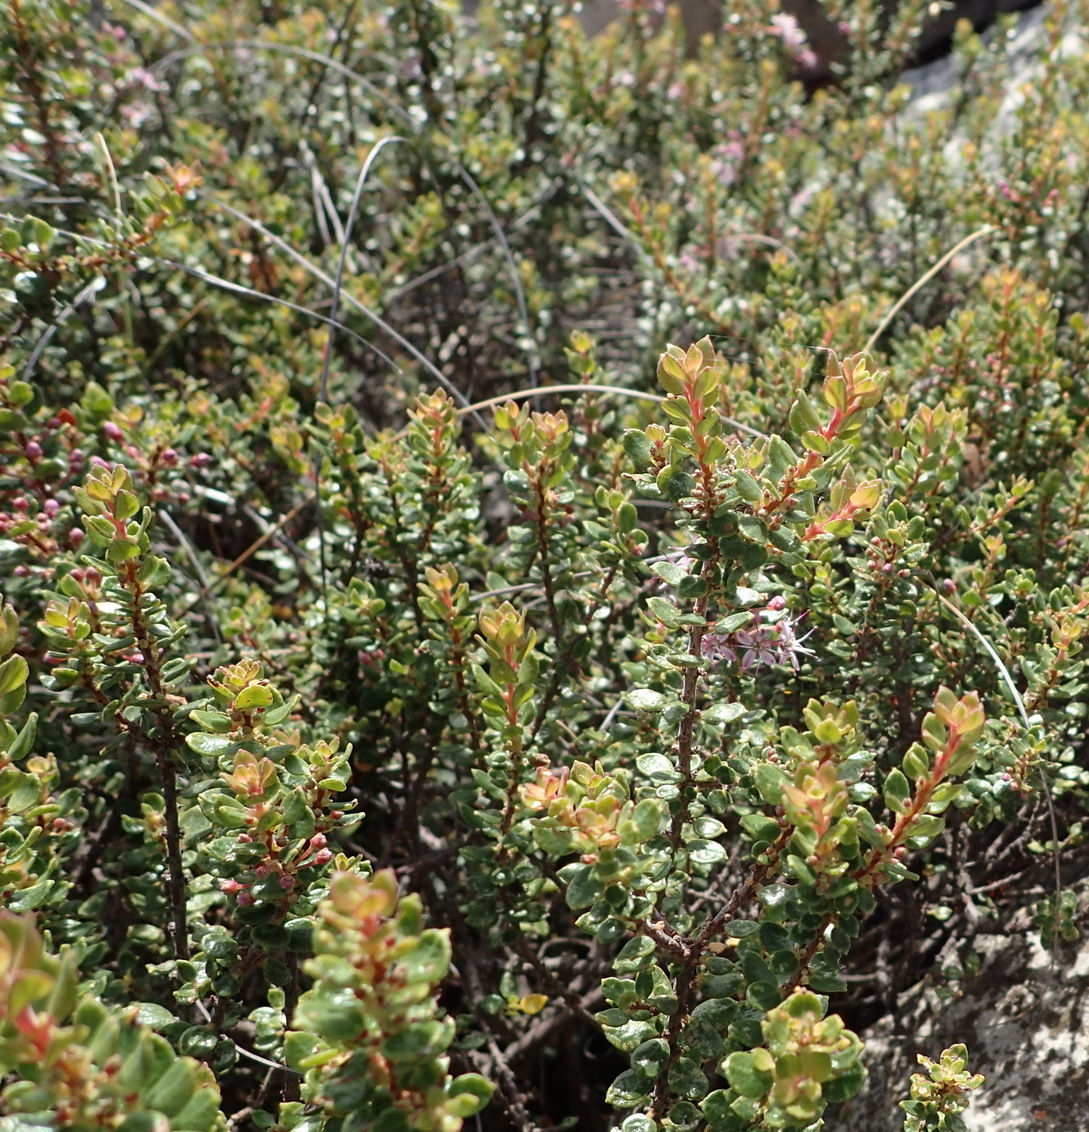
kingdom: Plantae
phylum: Tracheophyta
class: Magnoliopsida
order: Sapindales
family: Rutaceae
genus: Agathosma
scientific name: Agathosma ovata
